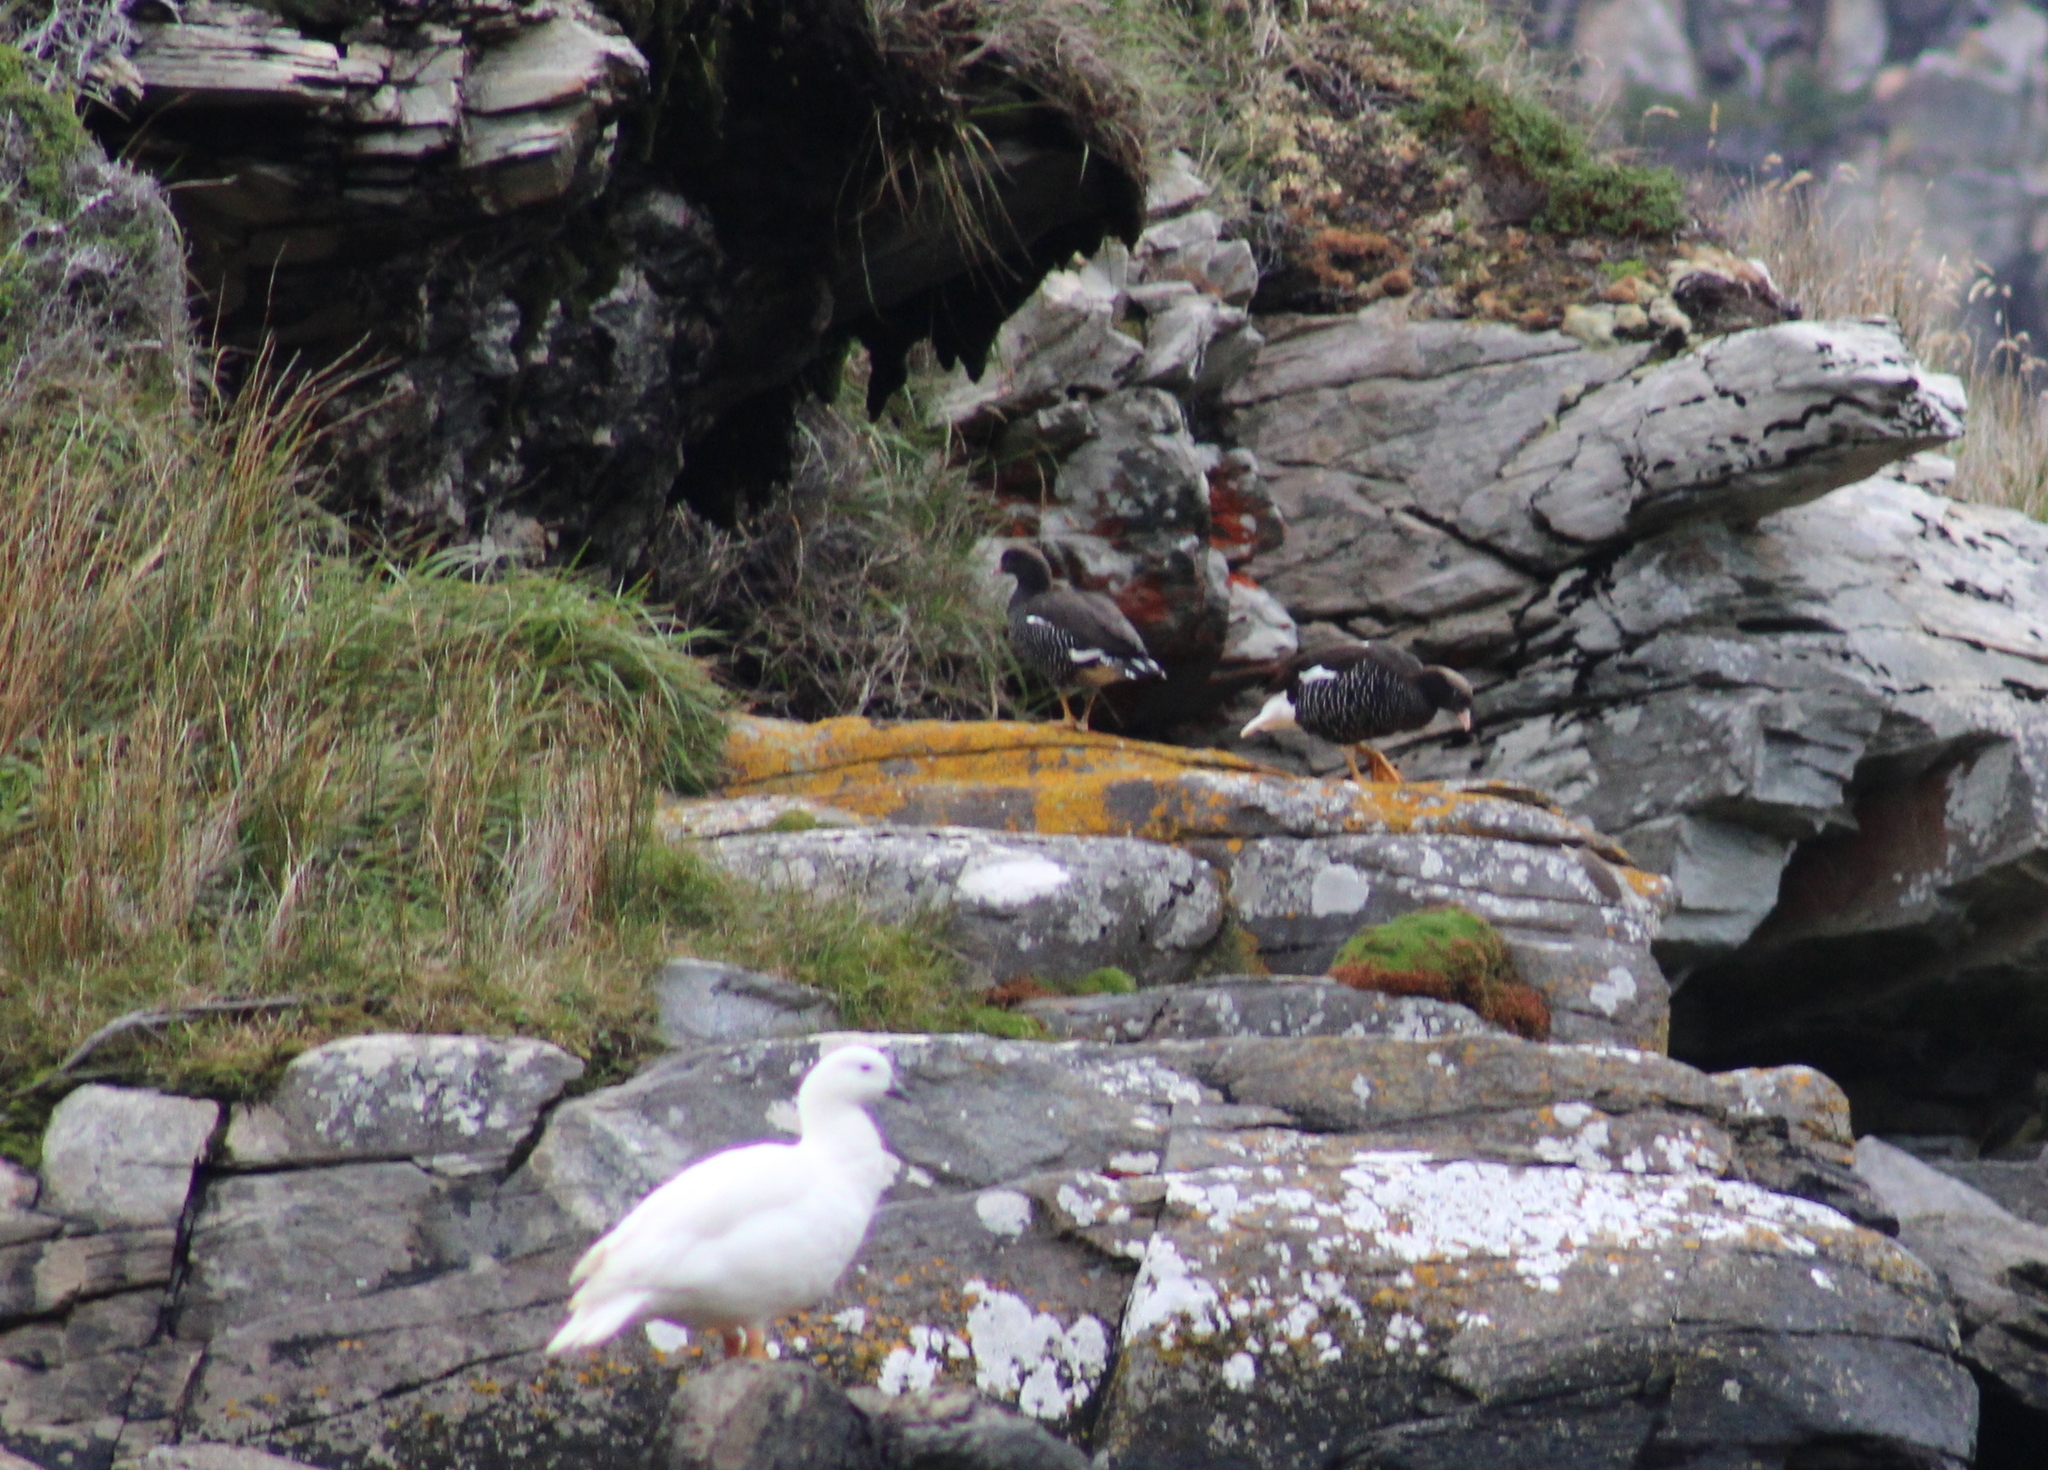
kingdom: Animalia
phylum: Chordata
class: Aves
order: Anseriformes
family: Anatidae
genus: Chloephaga
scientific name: Chloephaga hybrida
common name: Kelp goose
